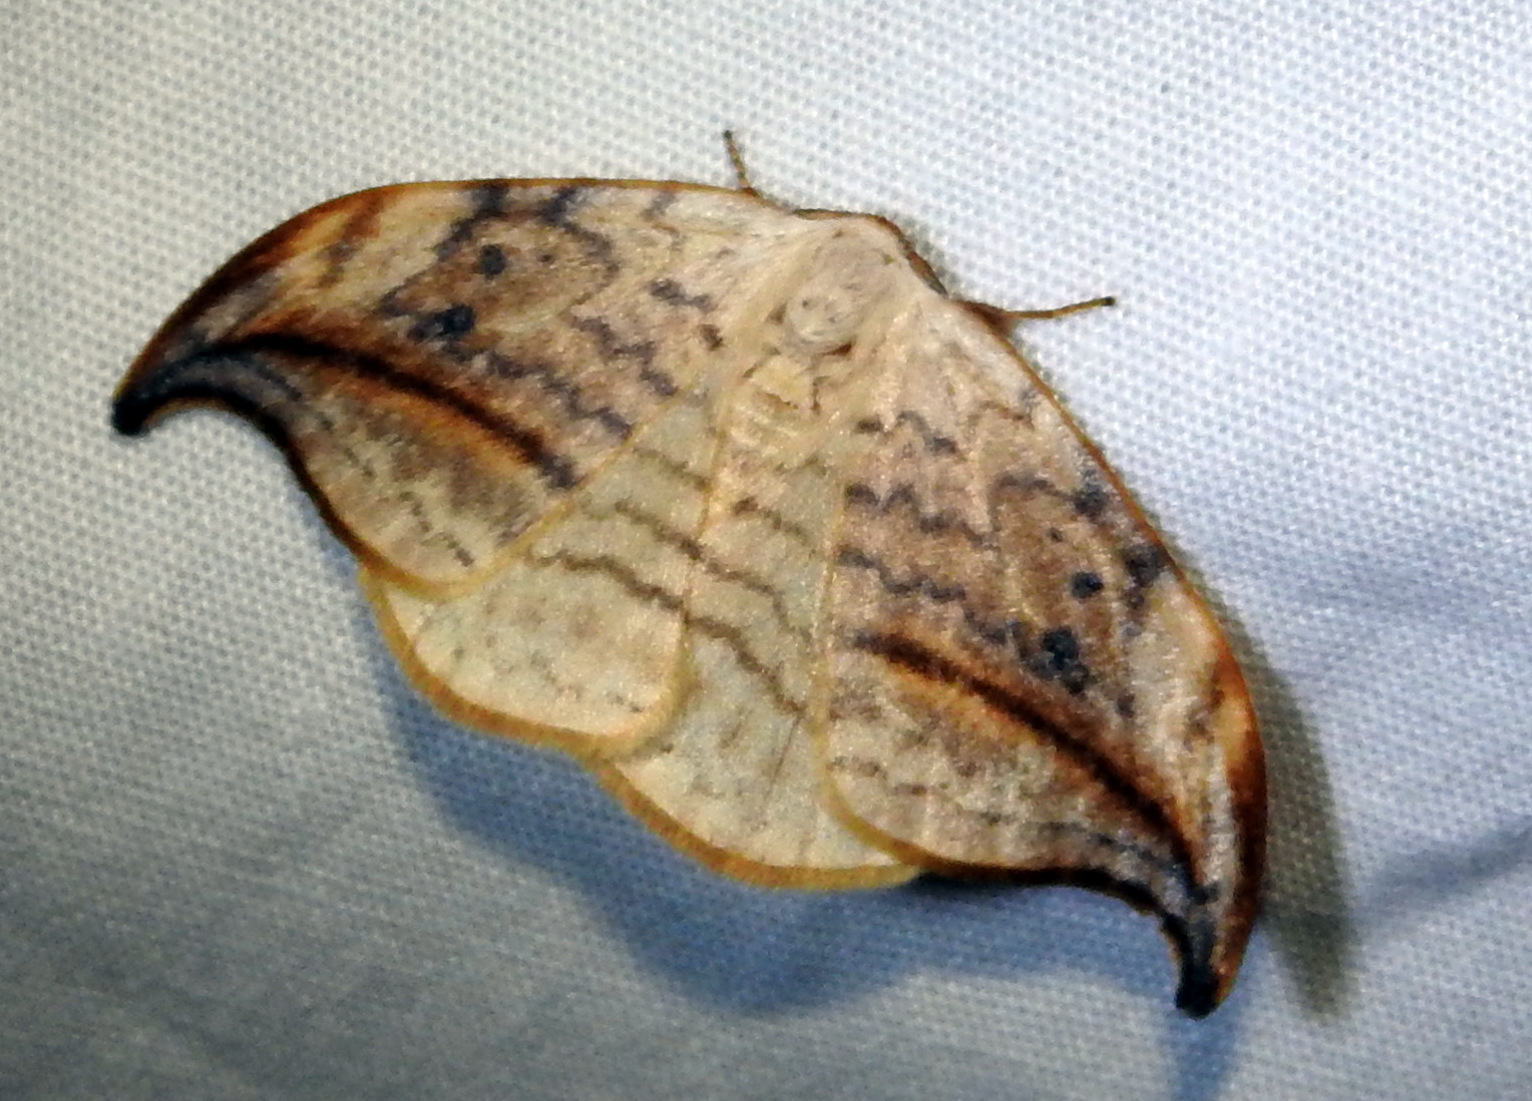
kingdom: Animalia
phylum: Arthropoda
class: Insecta
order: Lepidoptera
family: Drepanidae
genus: Drepana
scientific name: Drepana arcuata
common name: Arched hooktip moth
